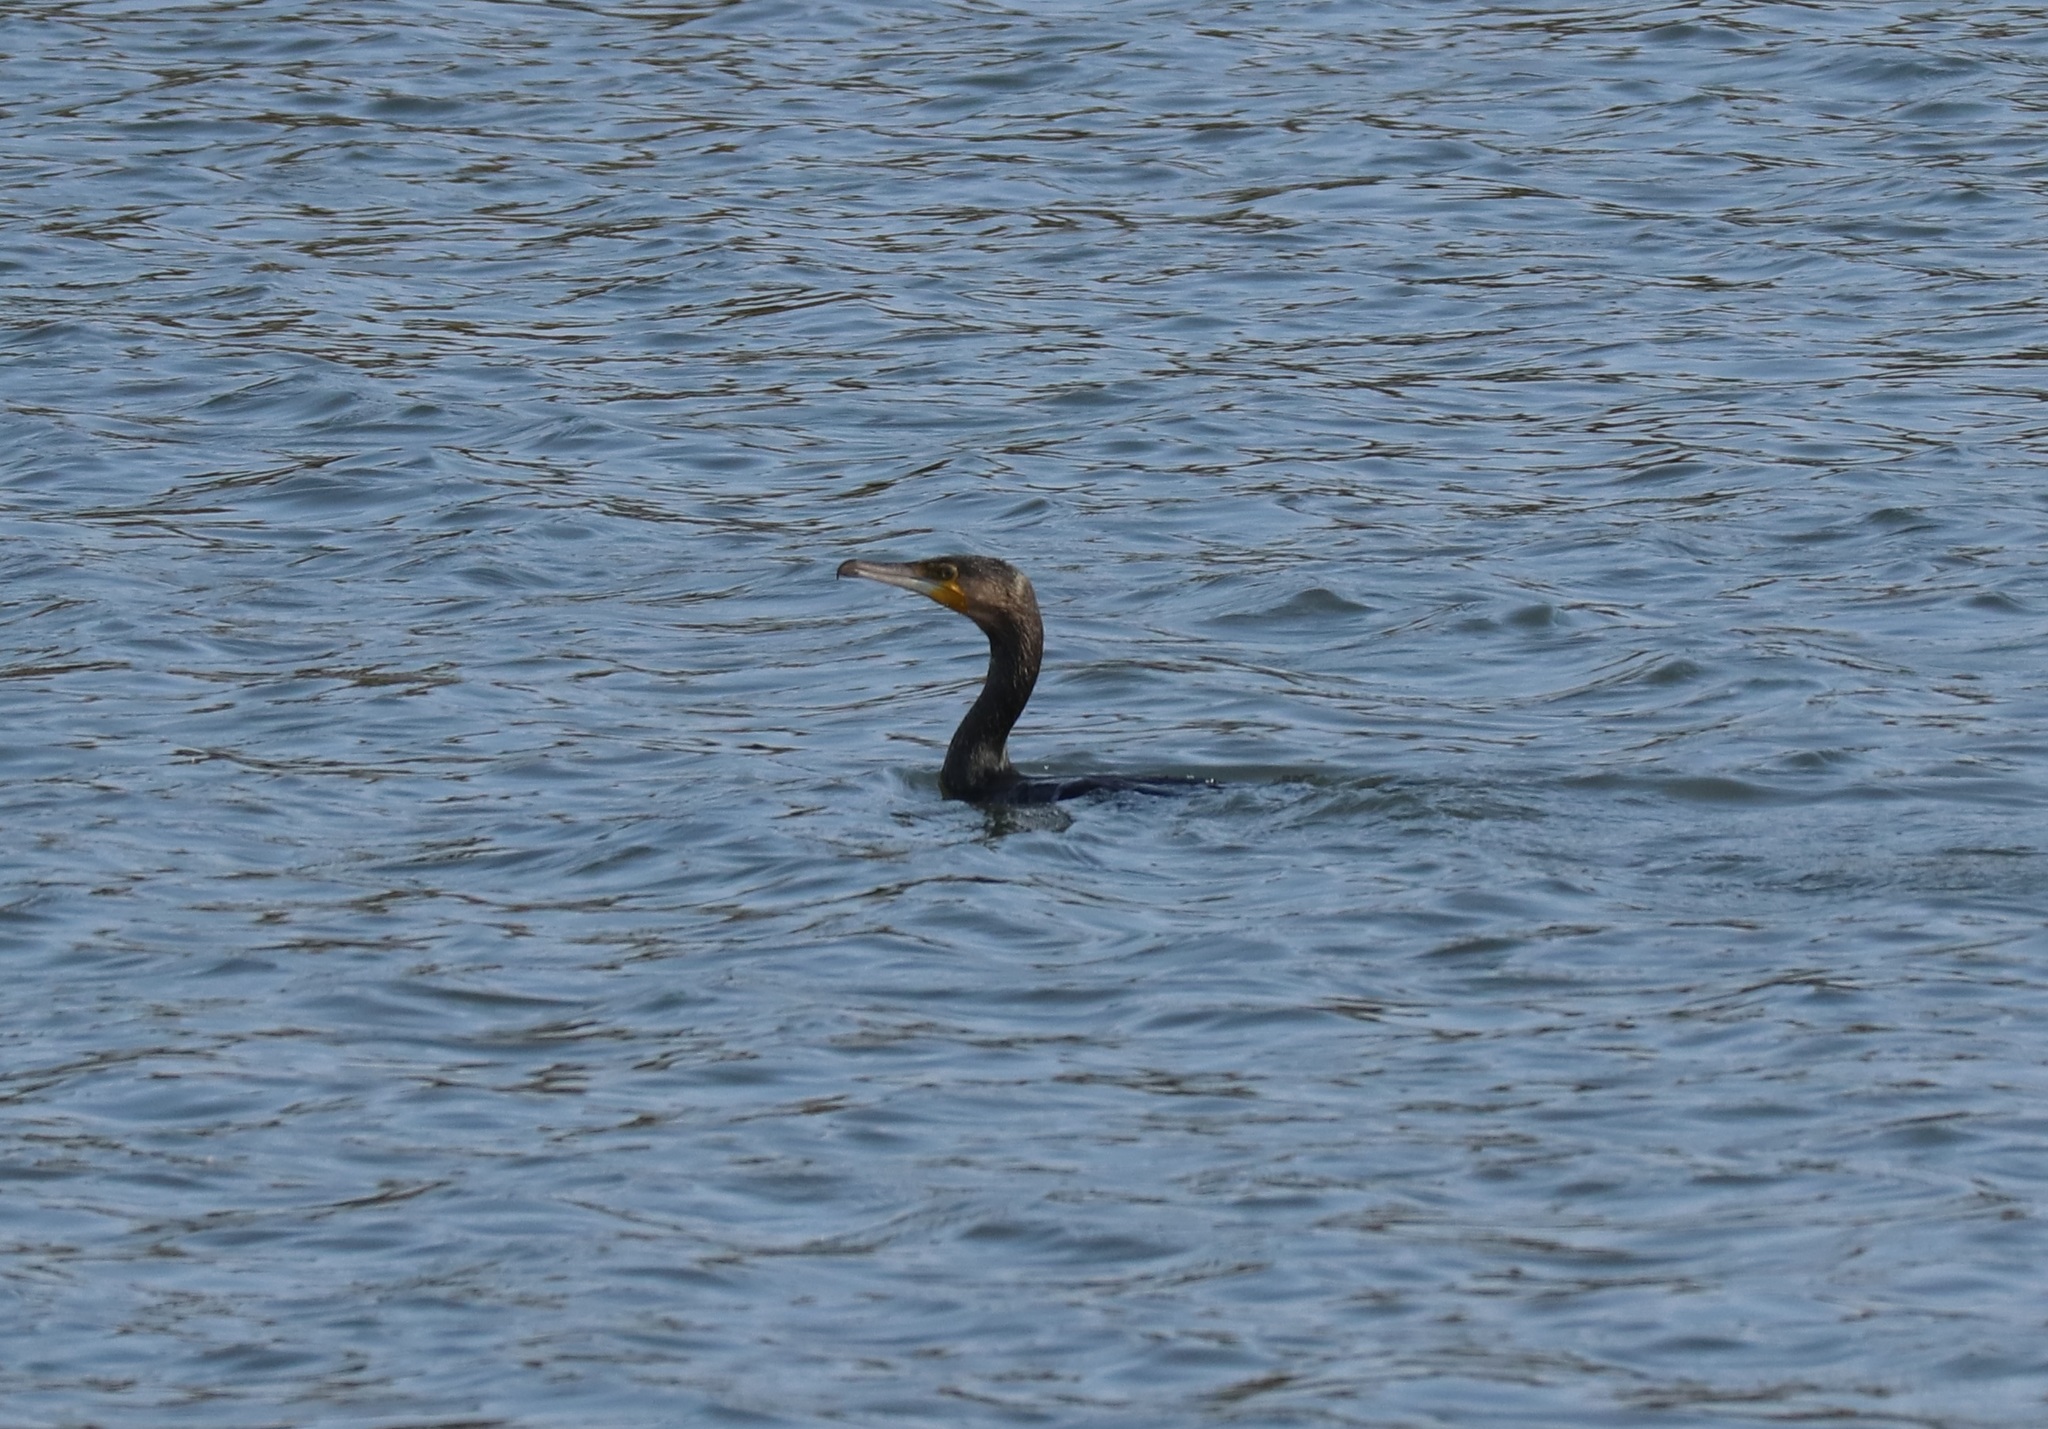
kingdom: Animalia
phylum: Chordata
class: Aves
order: Suliformes
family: Phalacrocoracidae
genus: Phalacrocorax
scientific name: Phalacrocorax carbo
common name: Great cormorant
